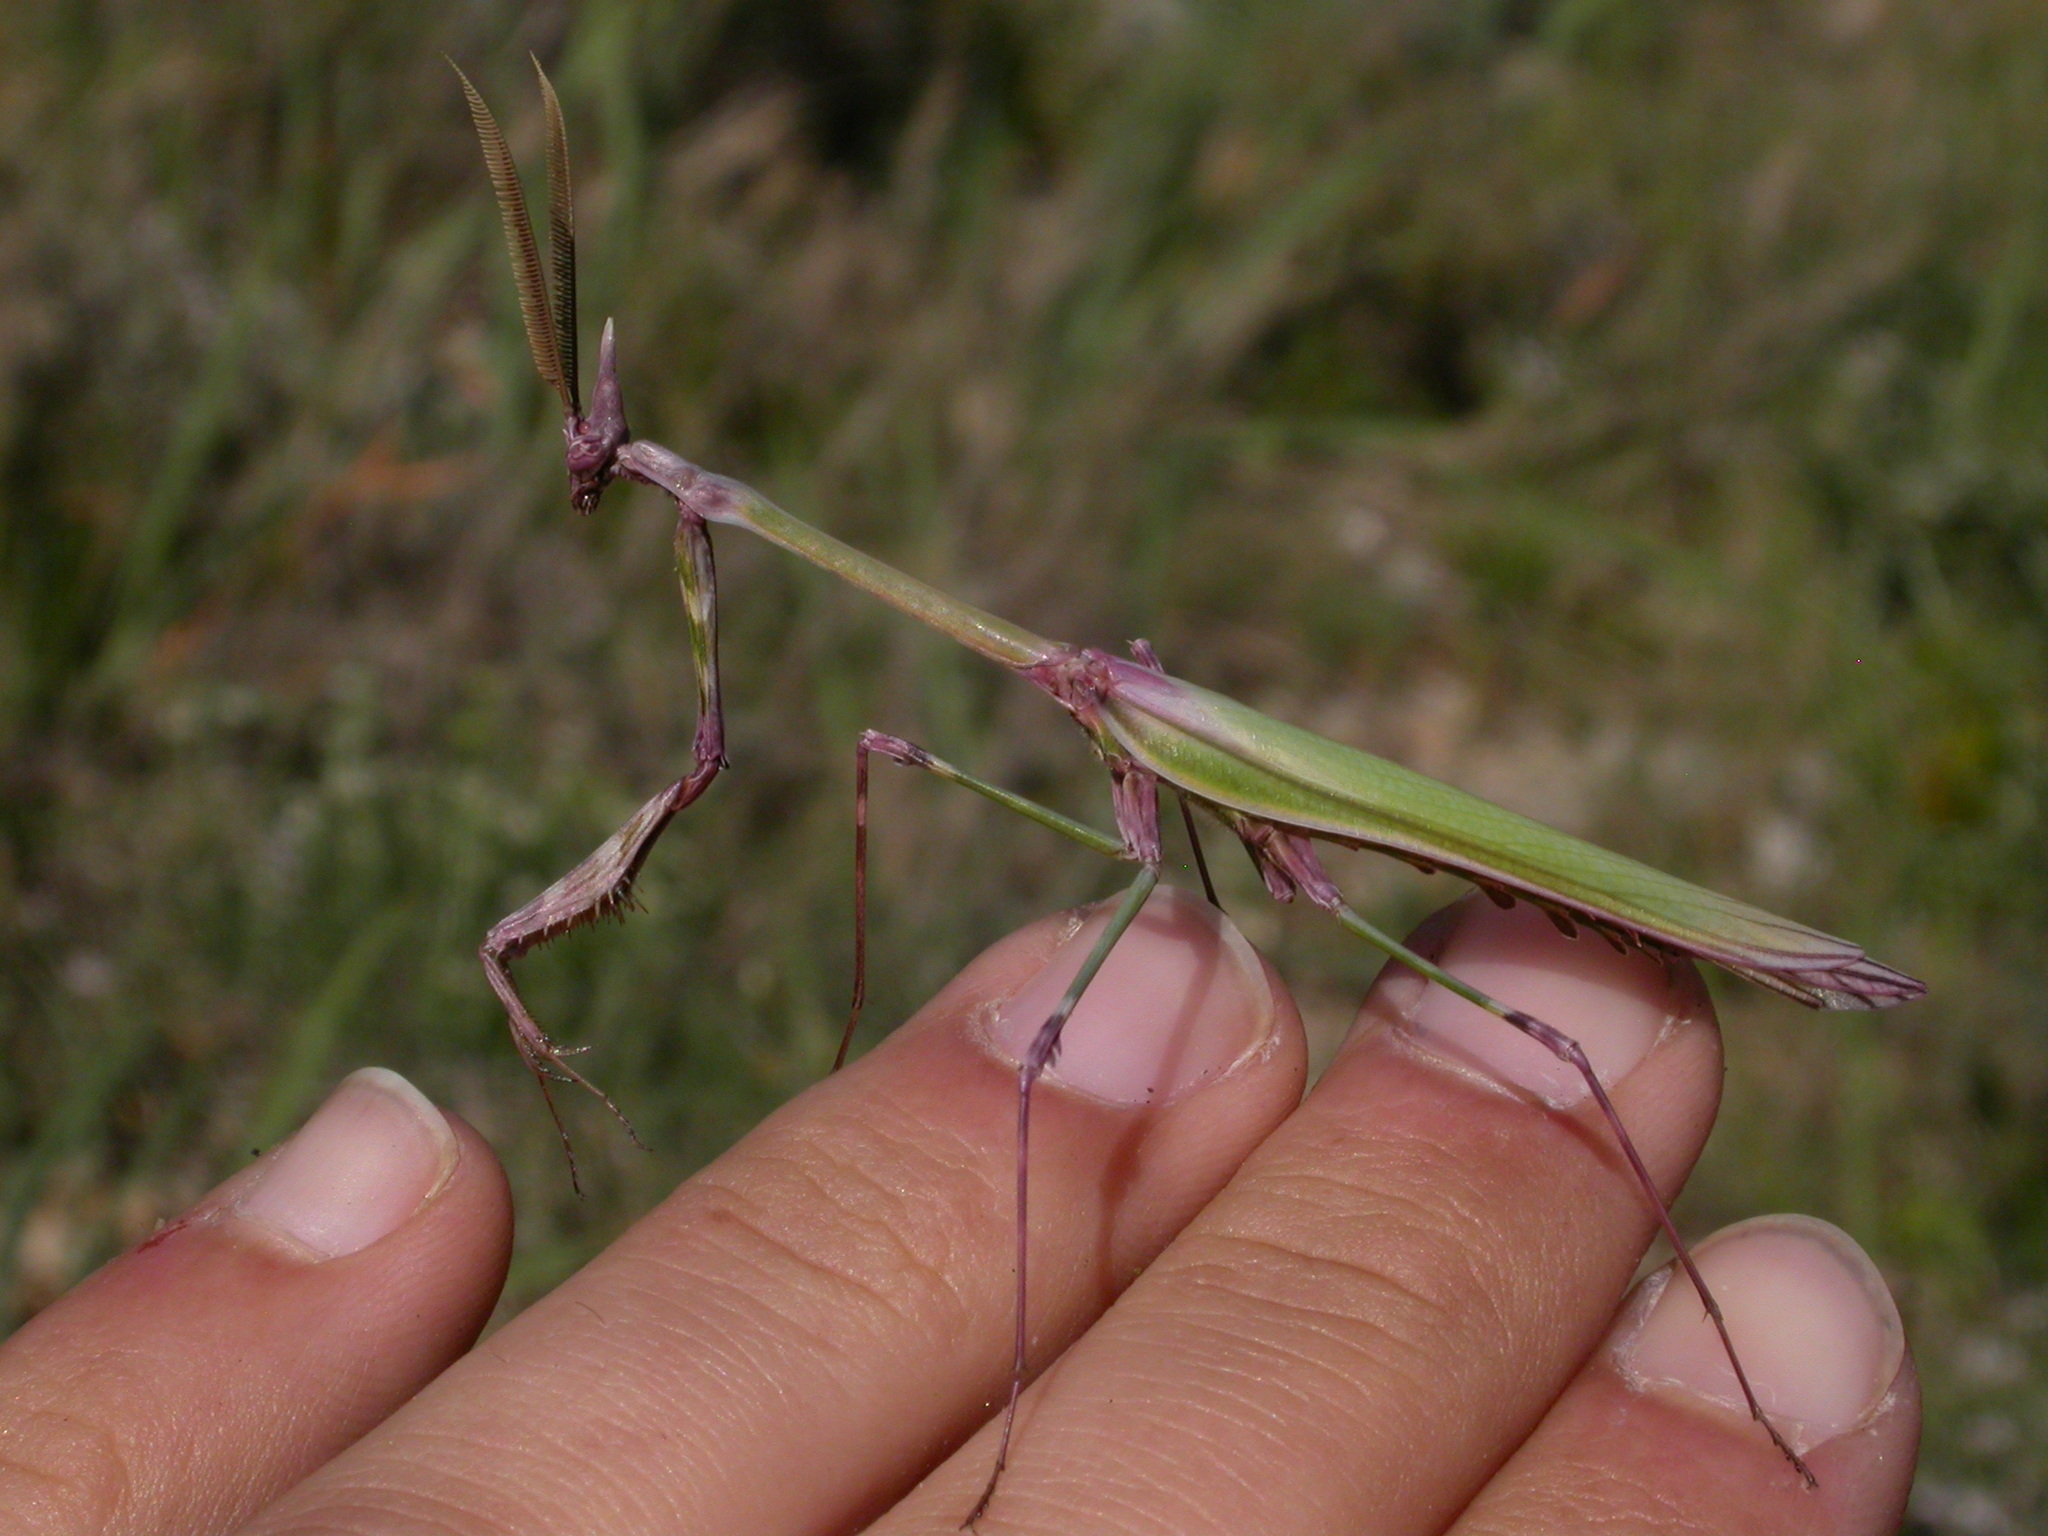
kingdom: Animalia
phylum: Arthropoda
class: Insecta
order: Mantodea
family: Empusidae
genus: Empusa
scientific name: Empusa pennata
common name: Conehead mantis
